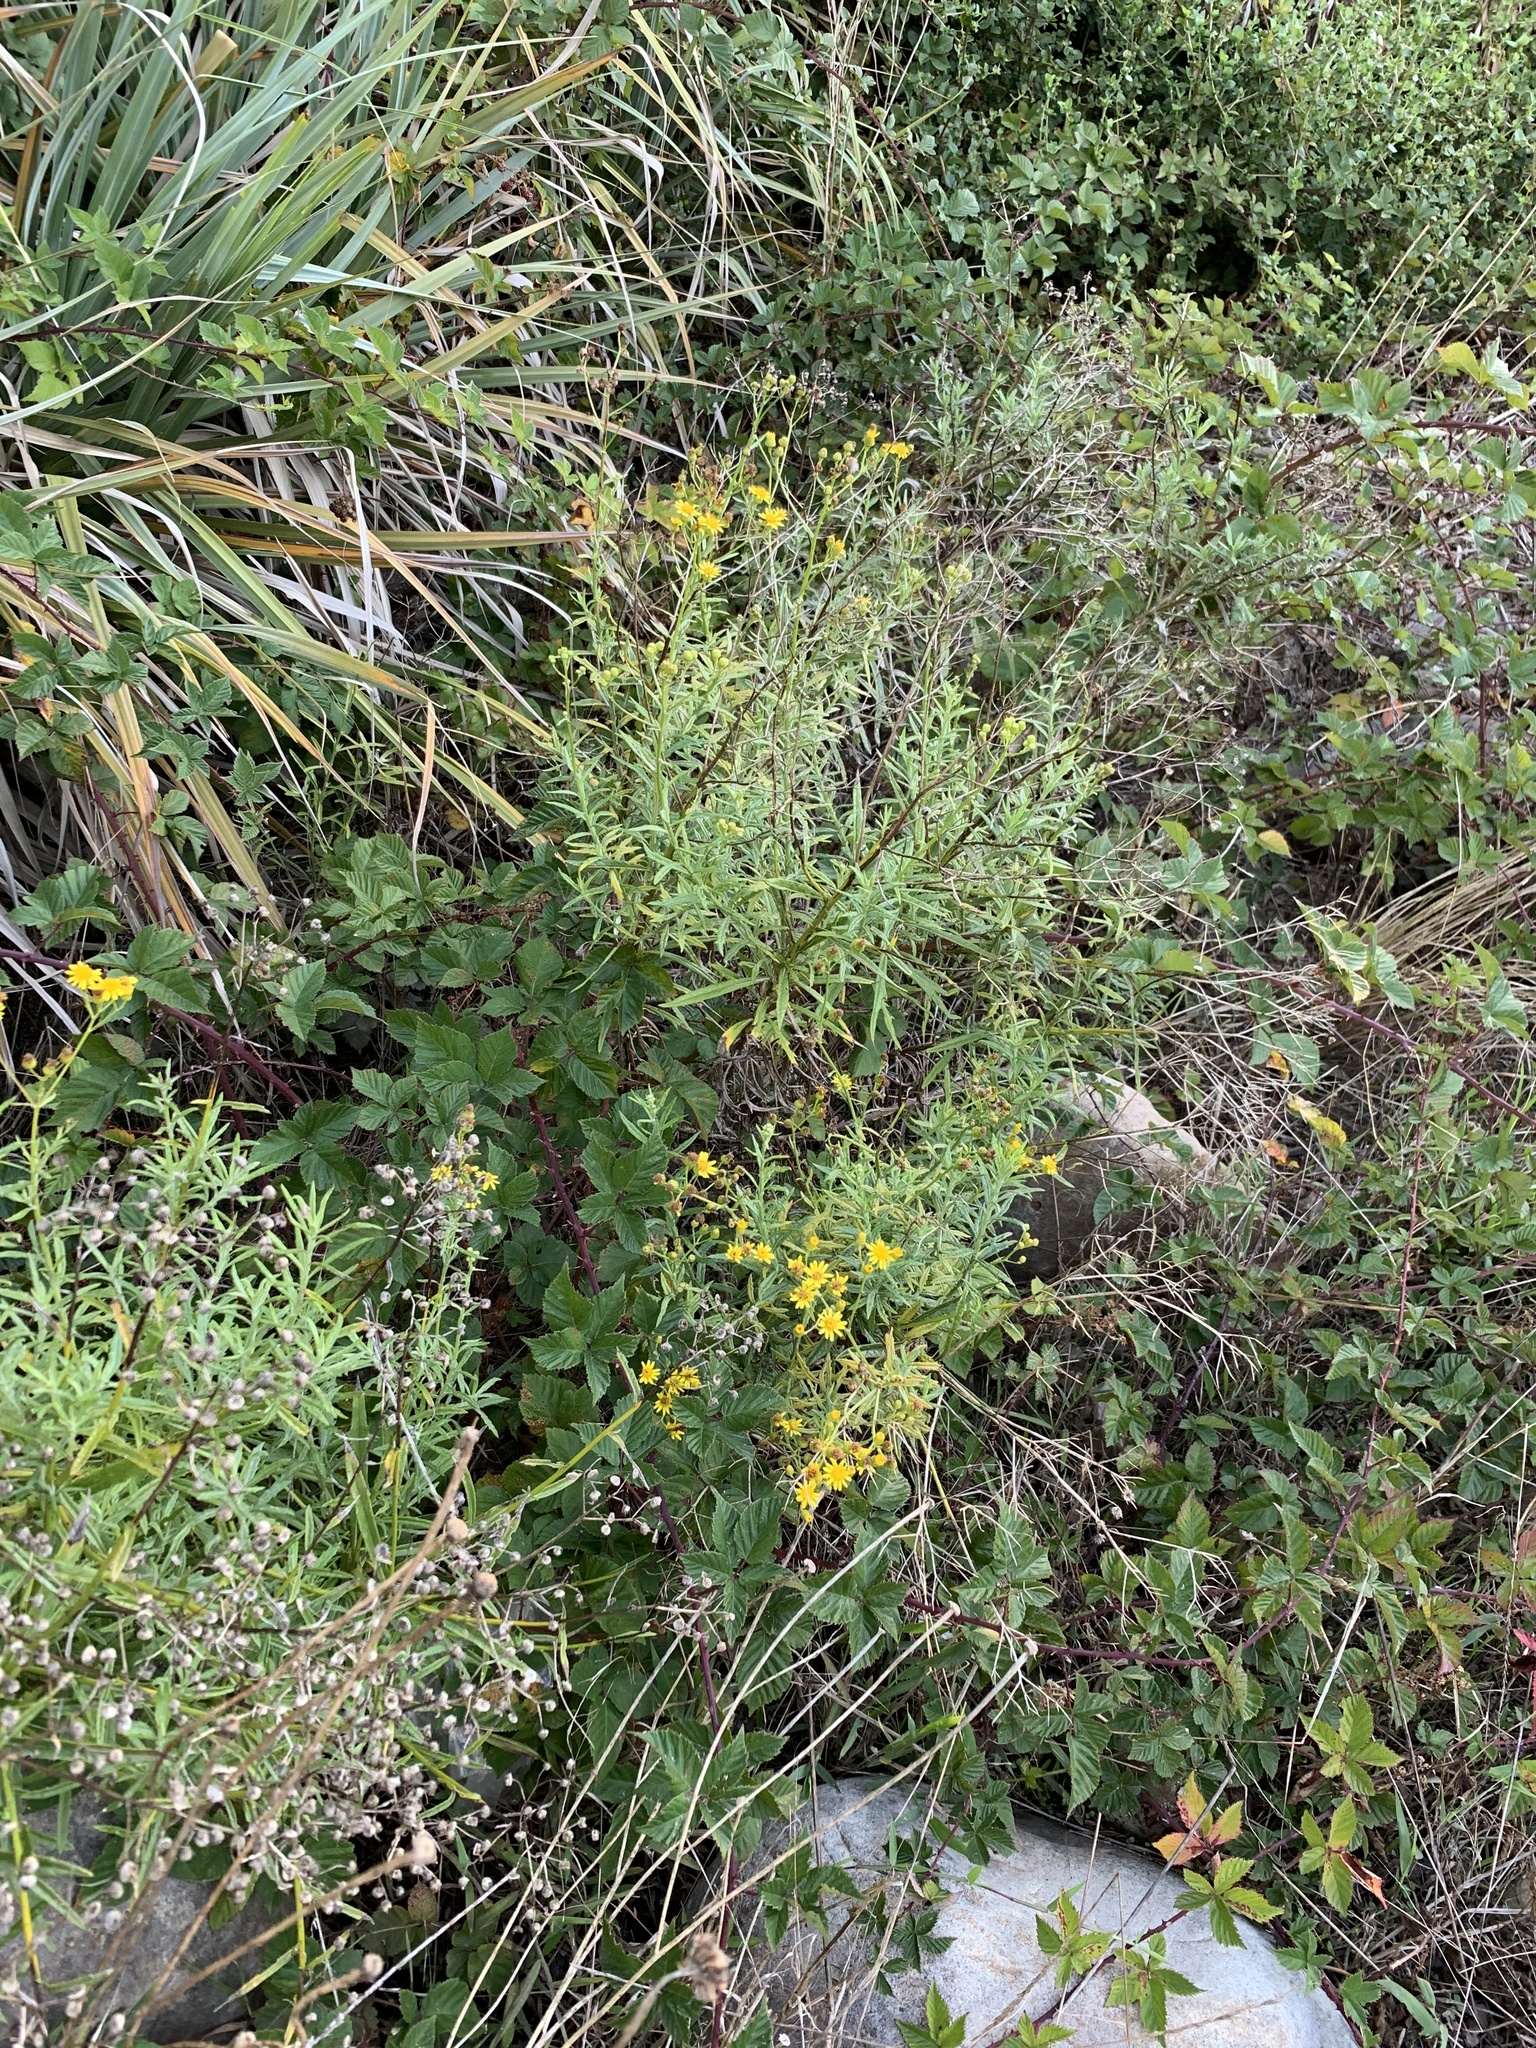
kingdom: Plantae
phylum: Tracheophyta
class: Magnoliopsida
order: Asterales
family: Asteraceae
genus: Senecio
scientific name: Senecio pterophorus
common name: Shoddy ragwort
